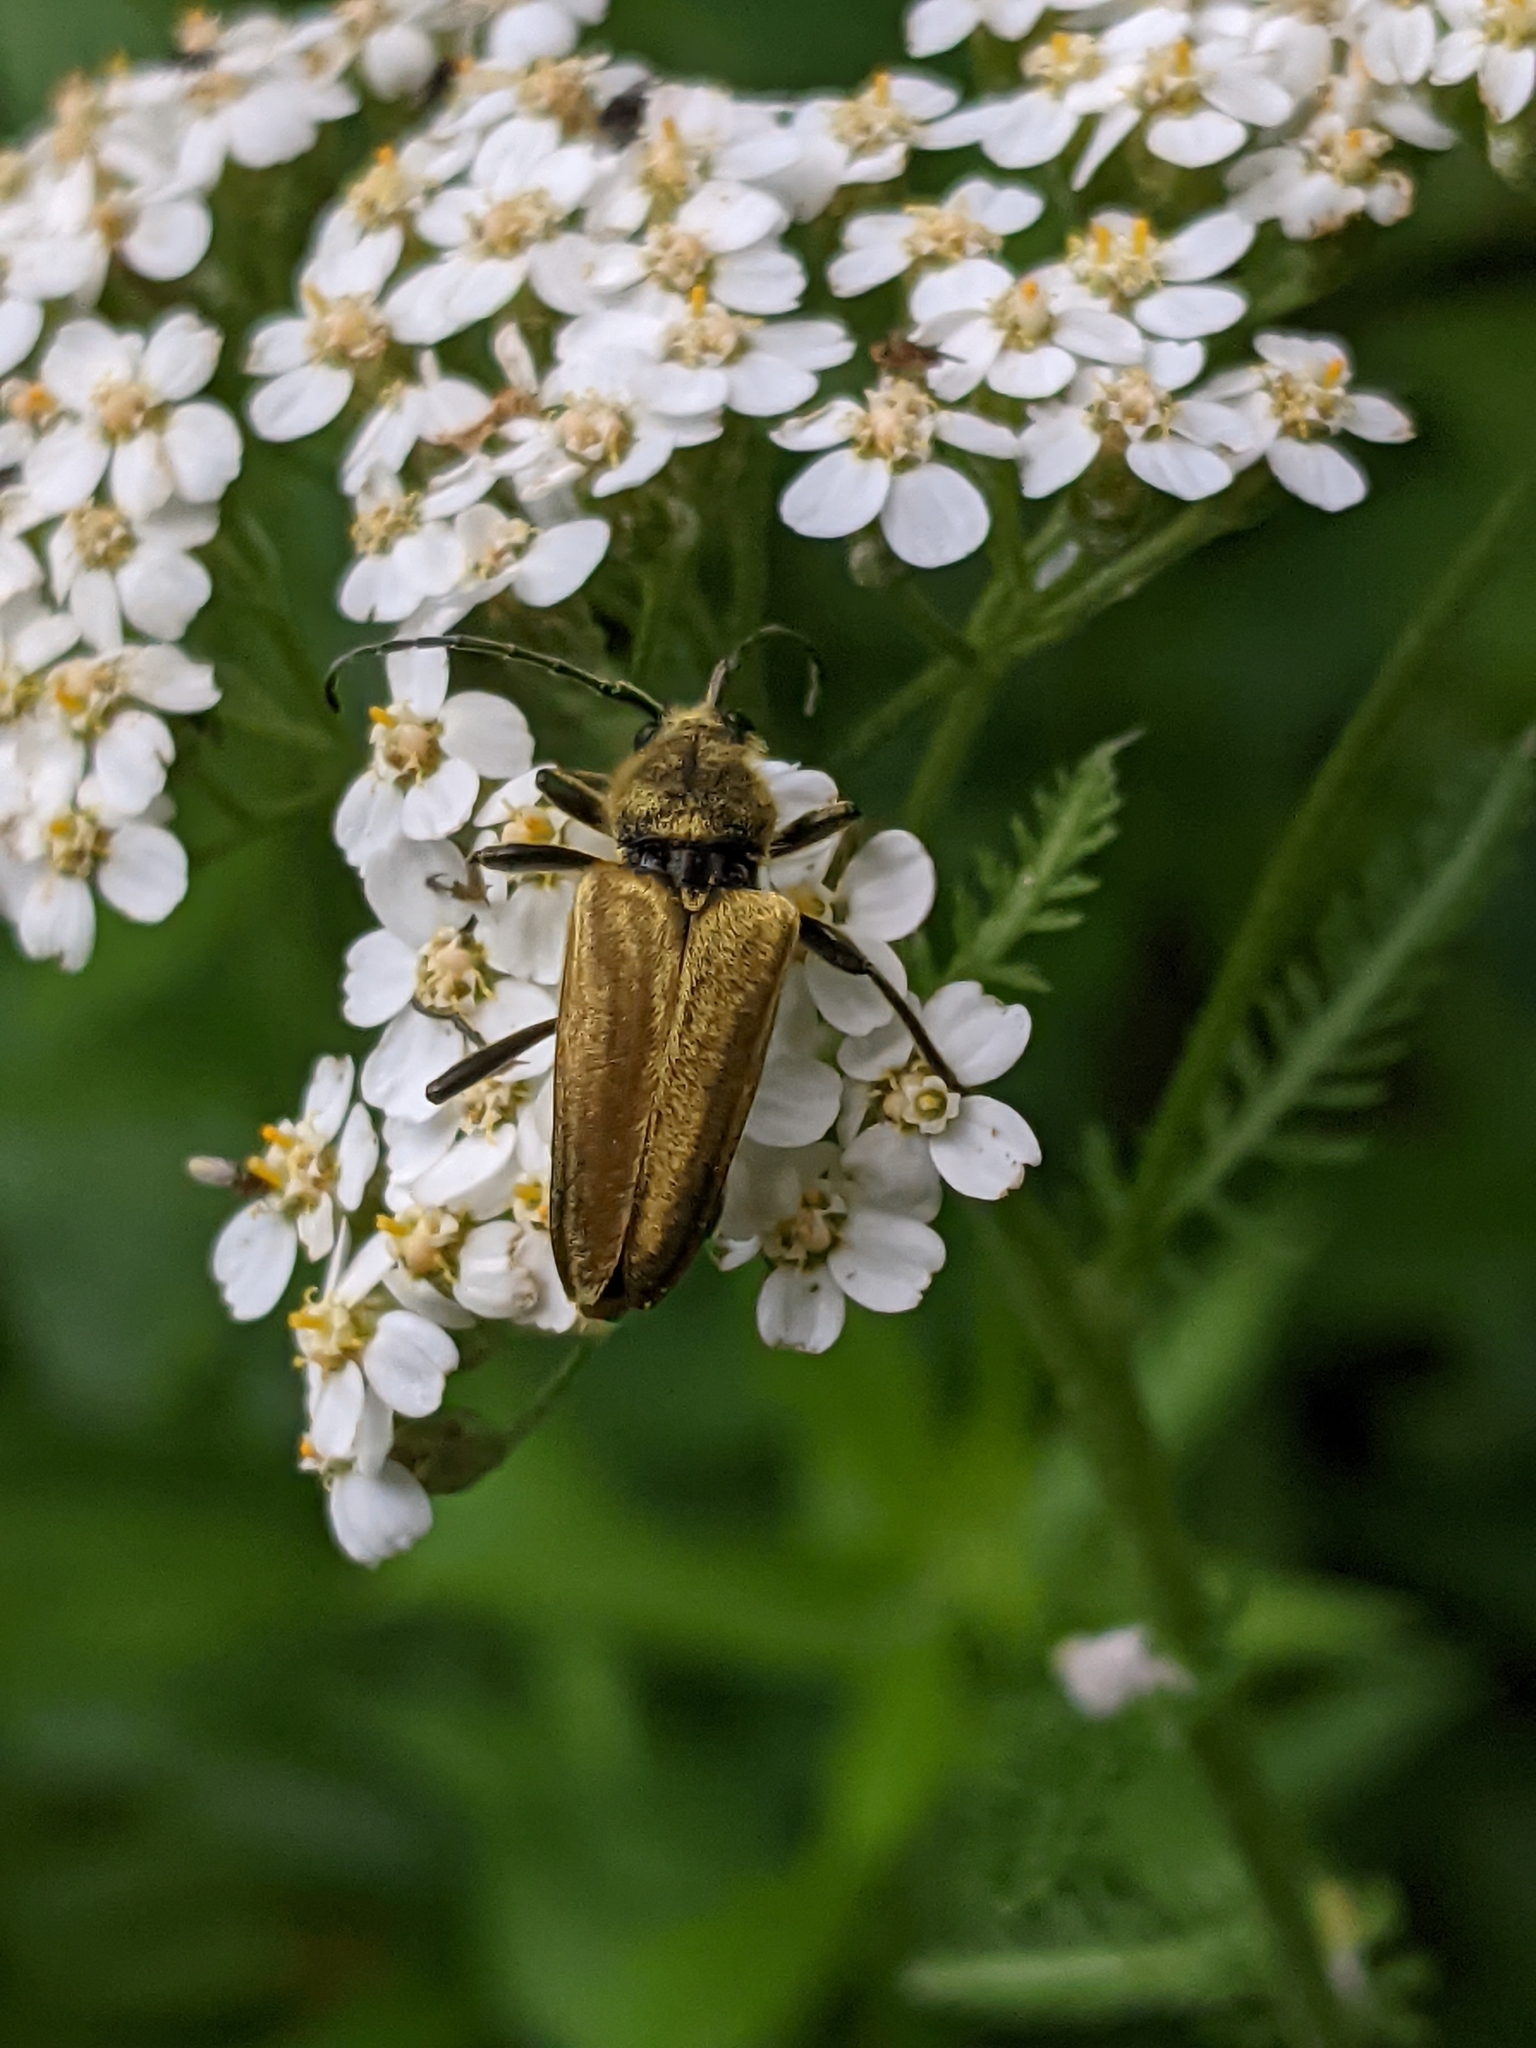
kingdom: Animalia
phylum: Arthropoda
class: Insecta
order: Coleoptera
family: Cerambycidae
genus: Cosmosalia
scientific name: Cosmosalia chrysocoma
